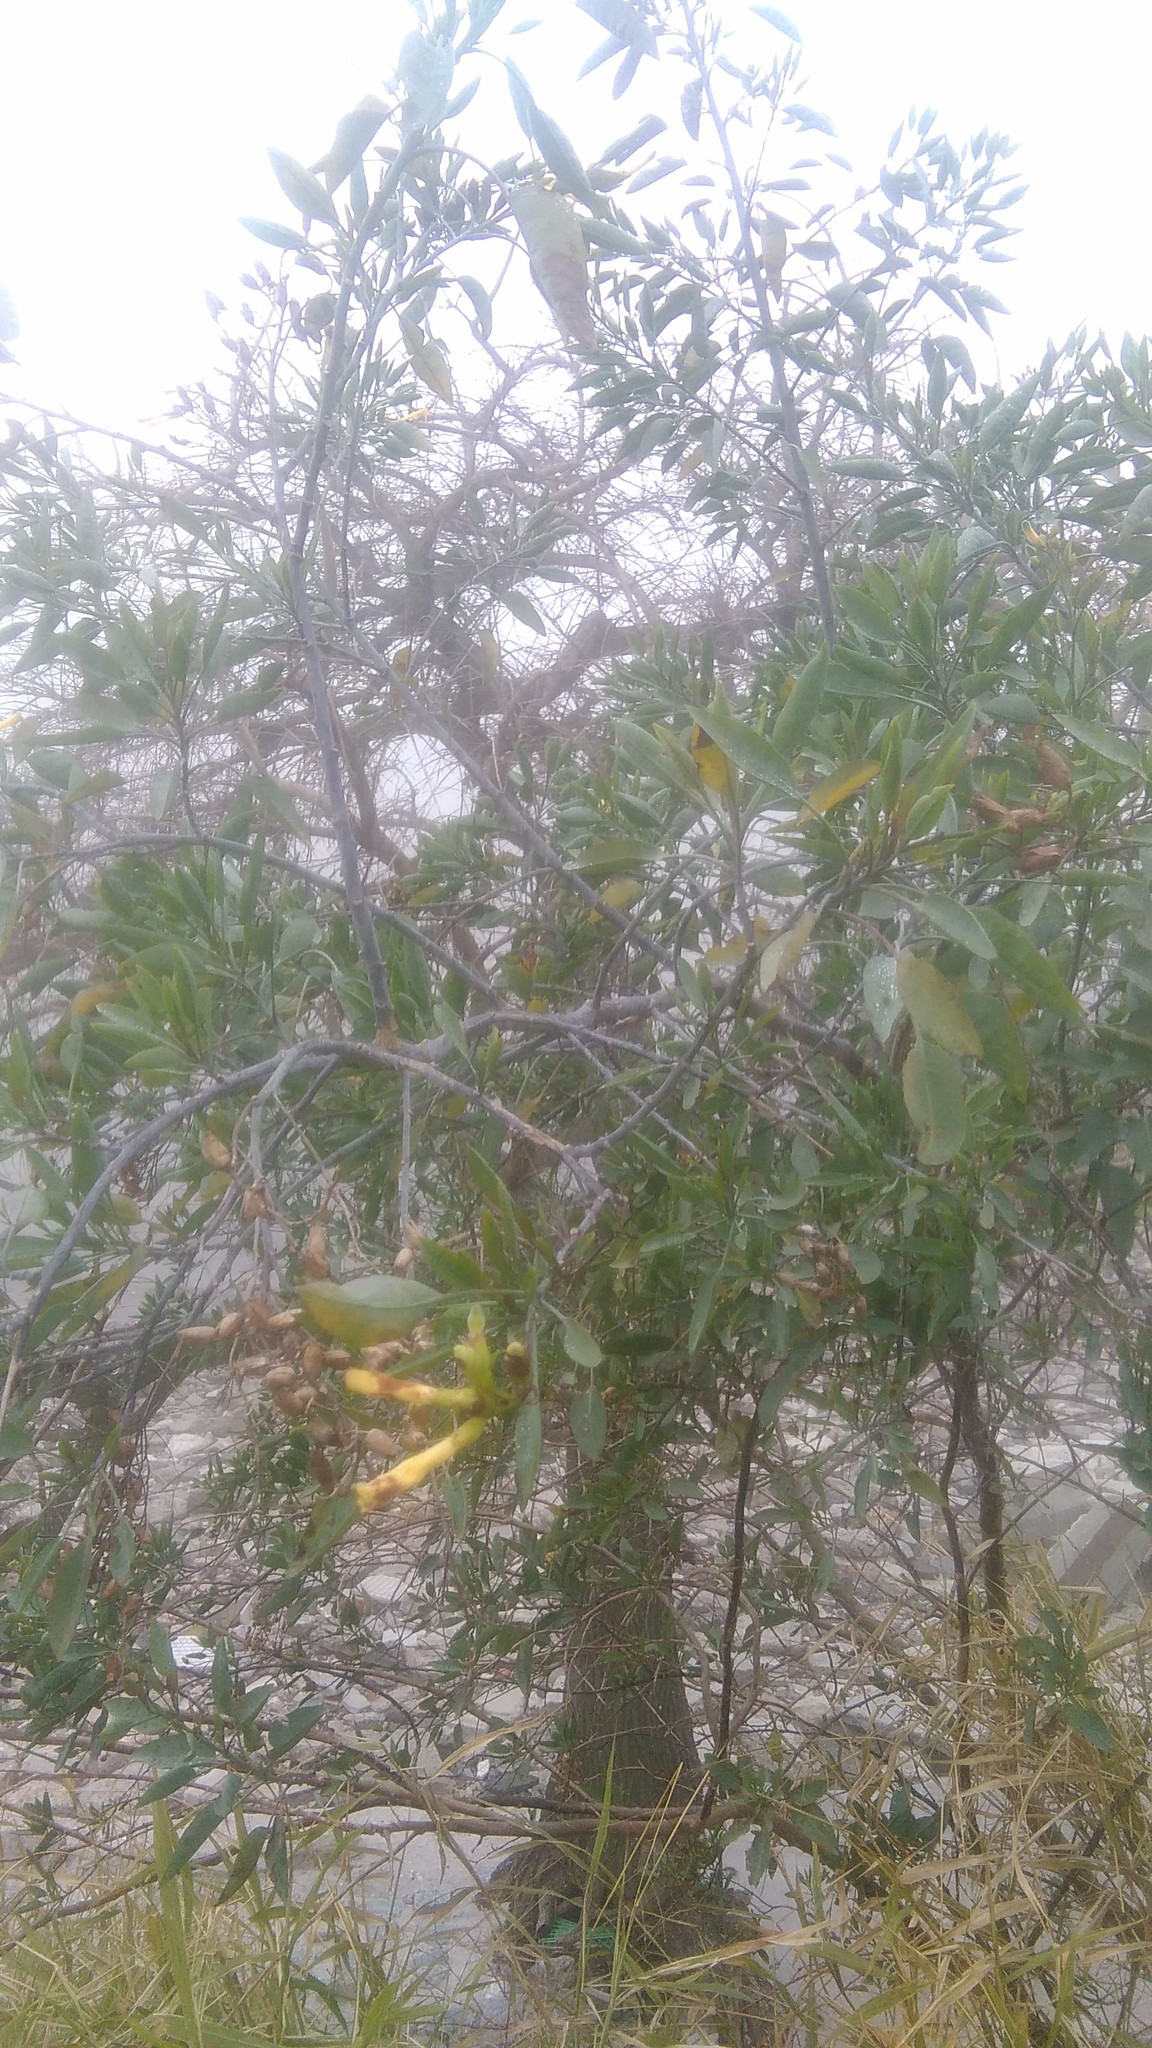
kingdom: Plantae
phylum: Tracheophyta
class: Magnoliopsida
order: Solanales
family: Solanaceae
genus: Nicotiana
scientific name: Nicotiana glauca
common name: Tree tobacco
